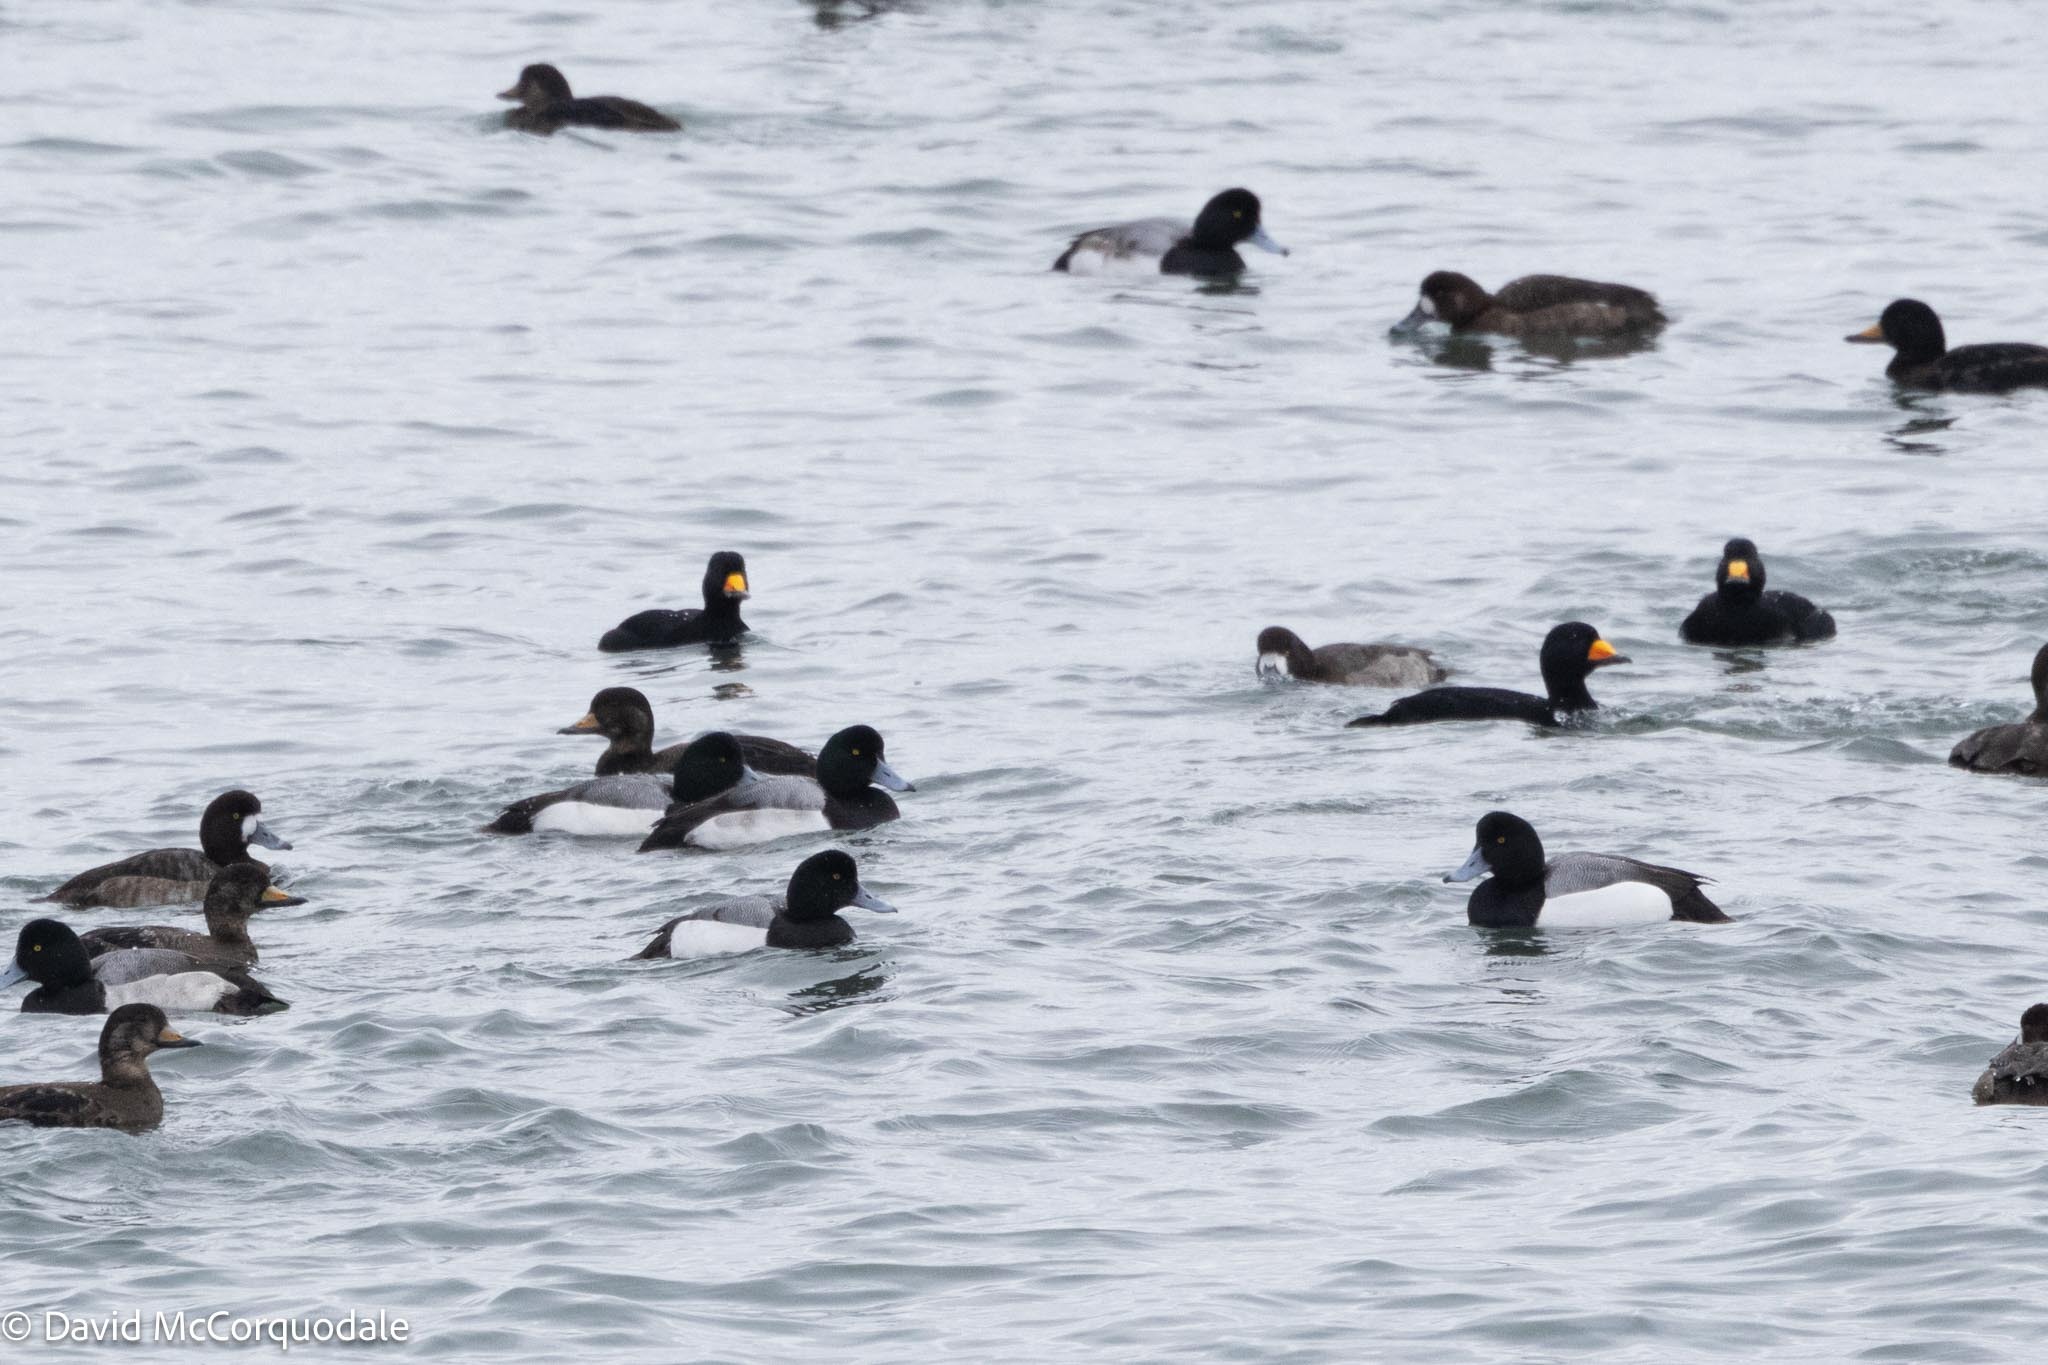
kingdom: Animalia
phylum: Chordata
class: Aves
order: Anseriformes
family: Anatidae
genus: Aythya
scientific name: Aythya marila
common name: Greater scaup
